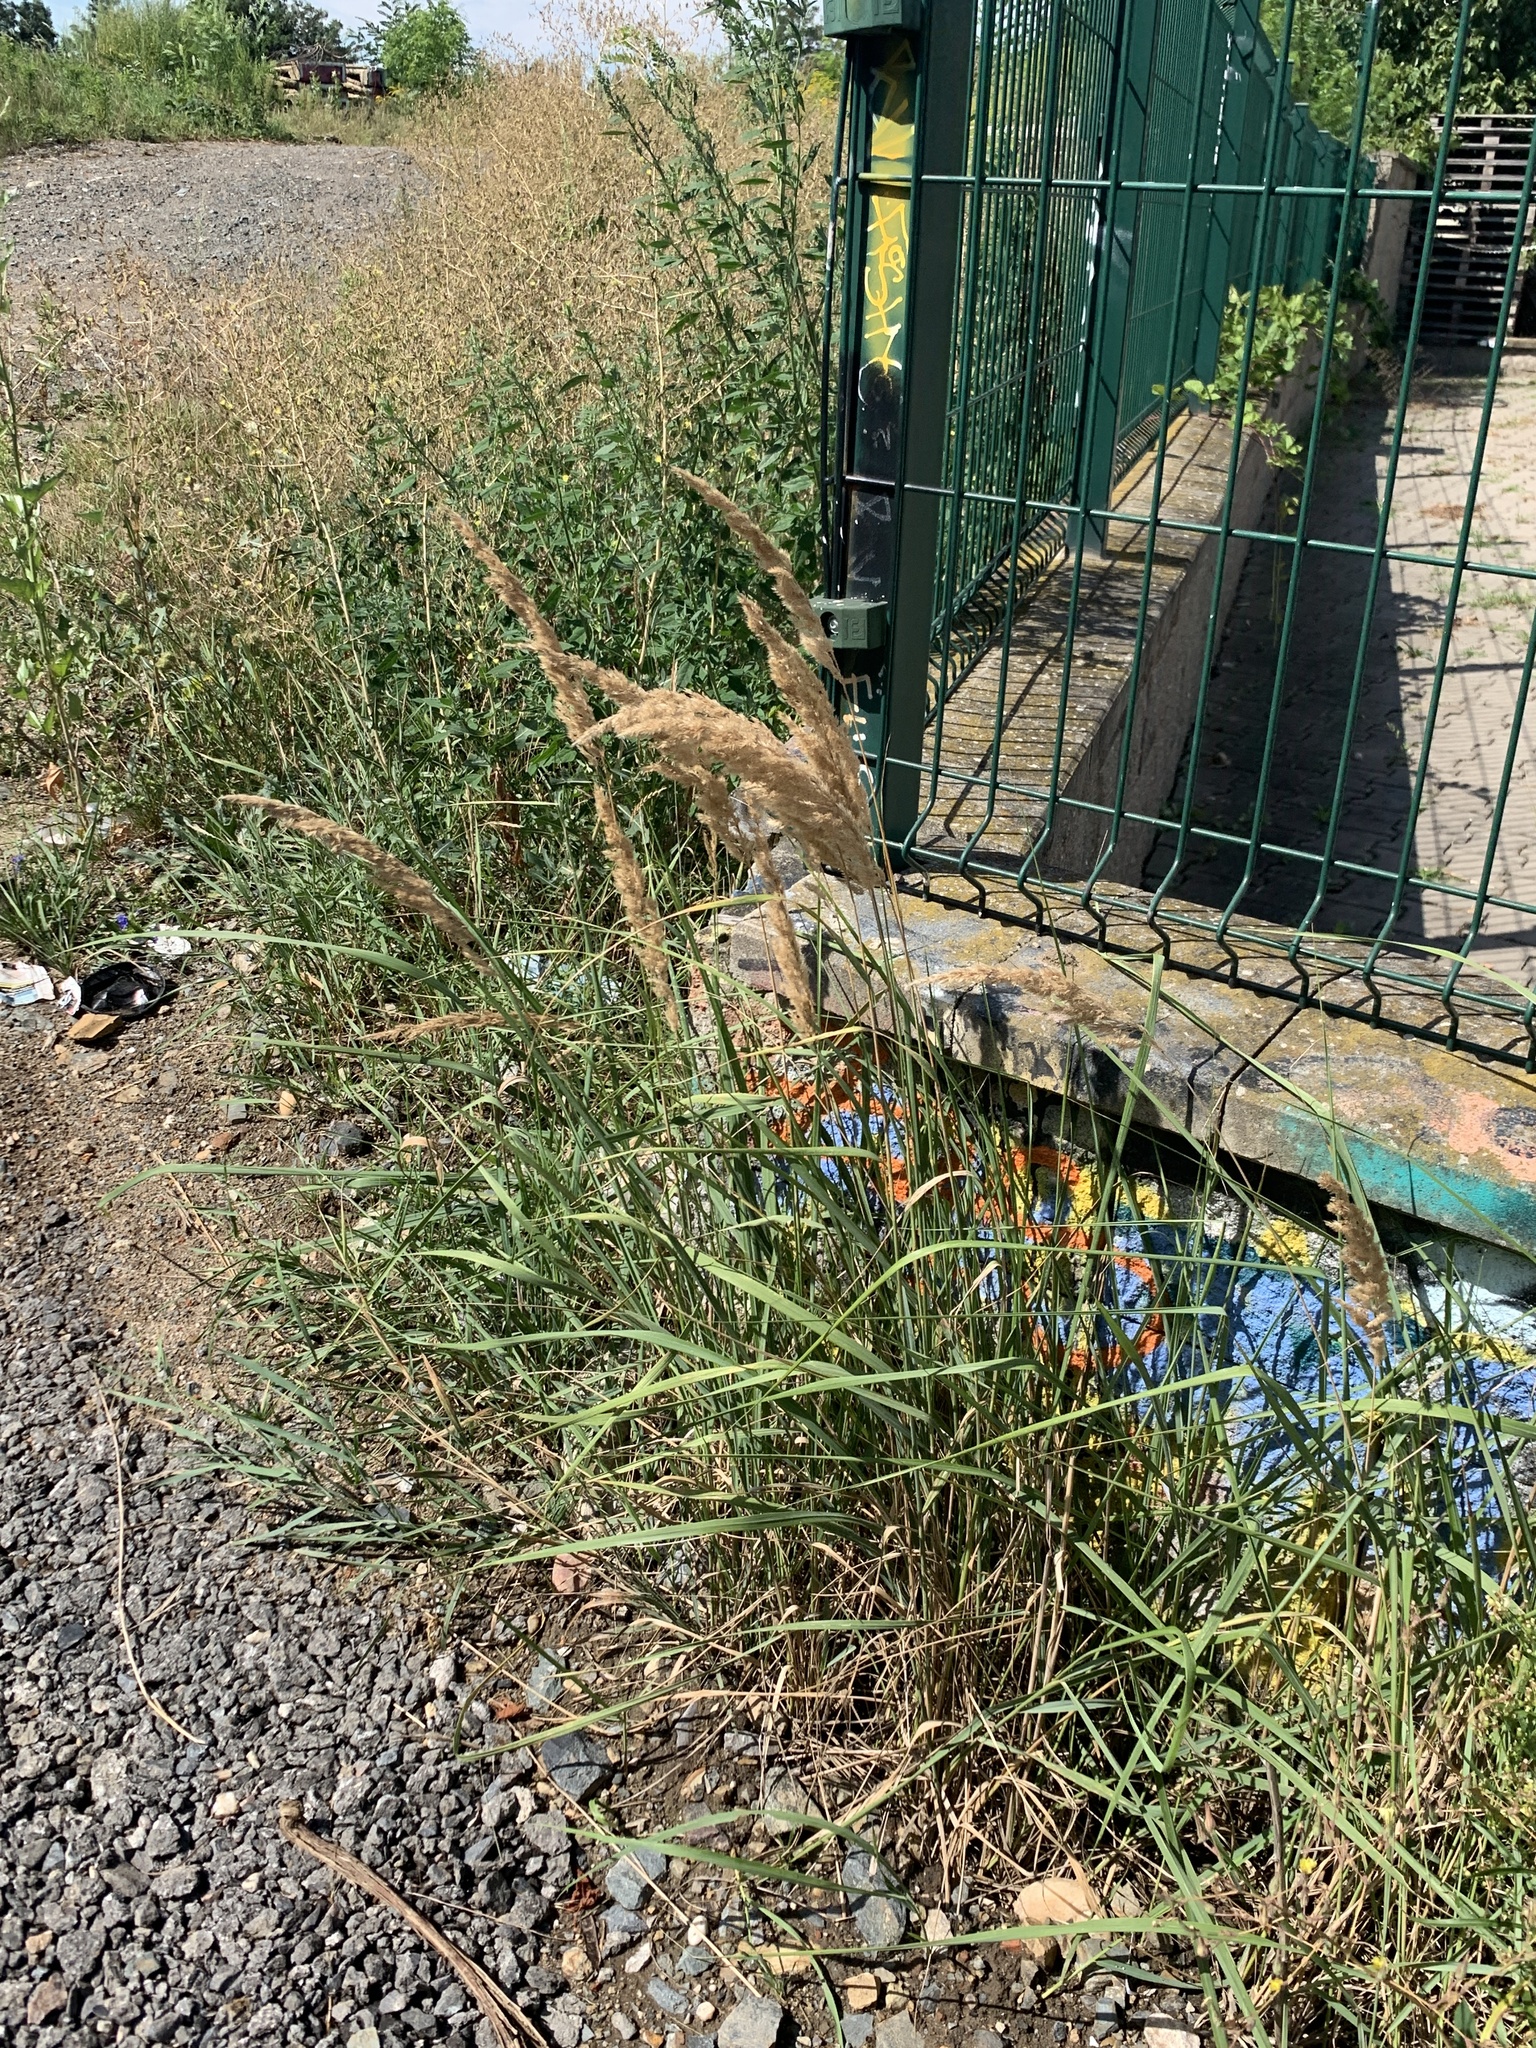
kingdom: Plantae
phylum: Tracheophyta
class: Liliopsida
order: Poales
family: Poaceae
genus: Calamagrostis
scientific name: Calamagrostis epigejos
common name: Wood small-reed
